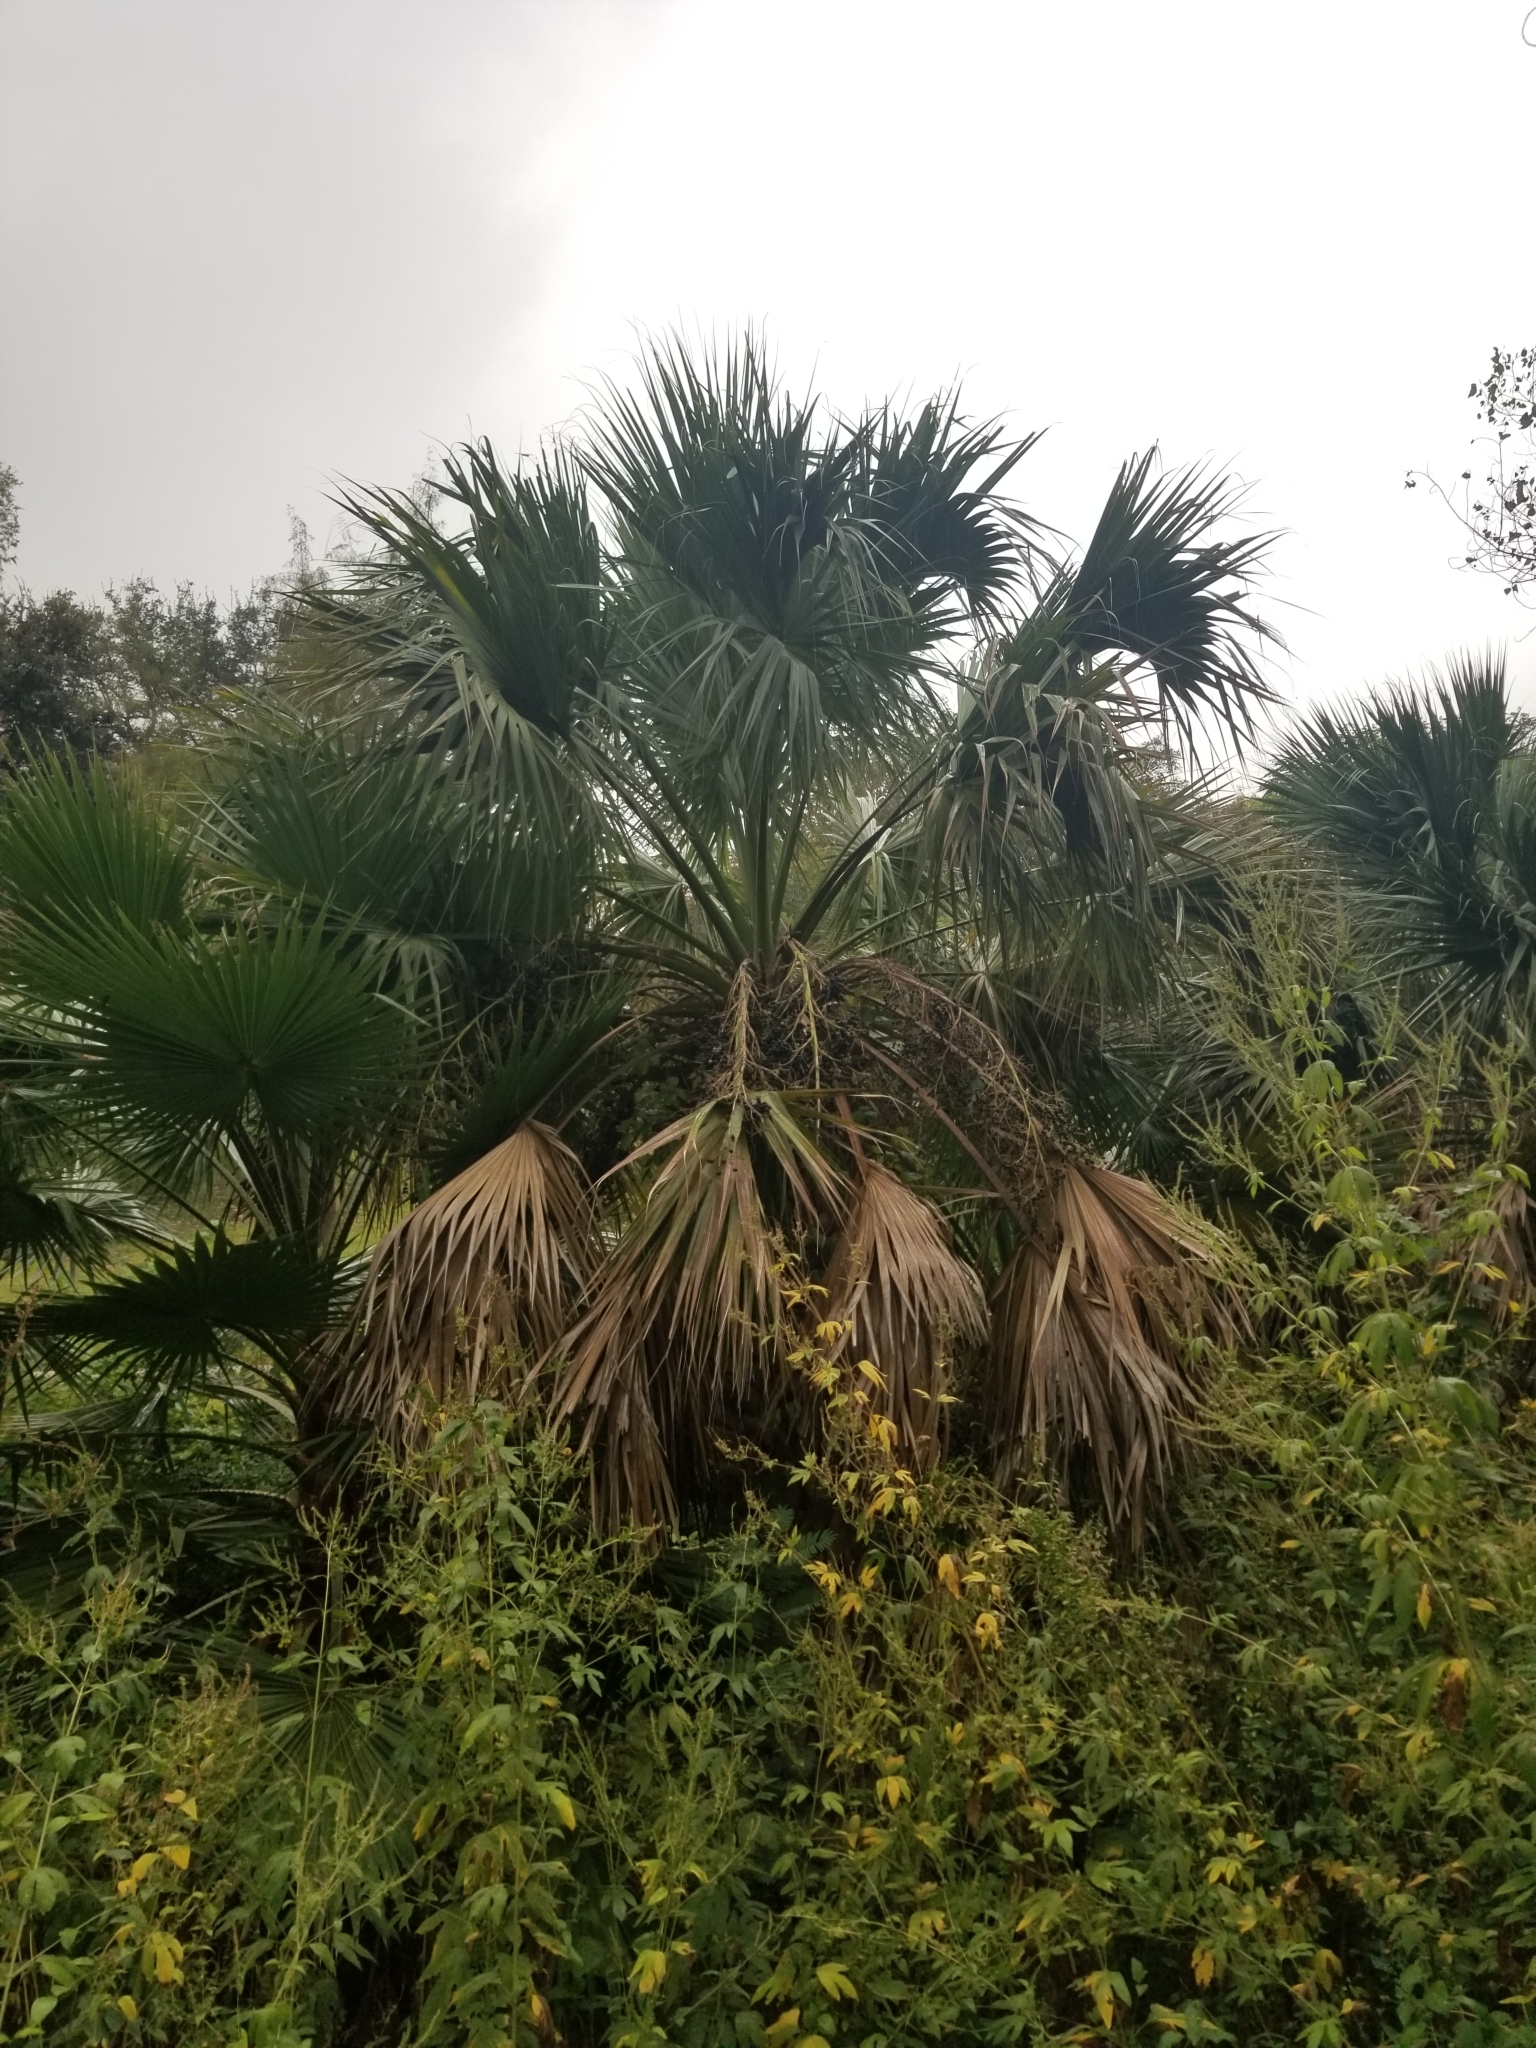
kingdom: Plantae
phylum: Tracheophyta
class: Liliopsida
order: Arecales
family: Arecaceae
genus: Sabal
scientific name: Sabal mexicana
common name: Texas palmetto
